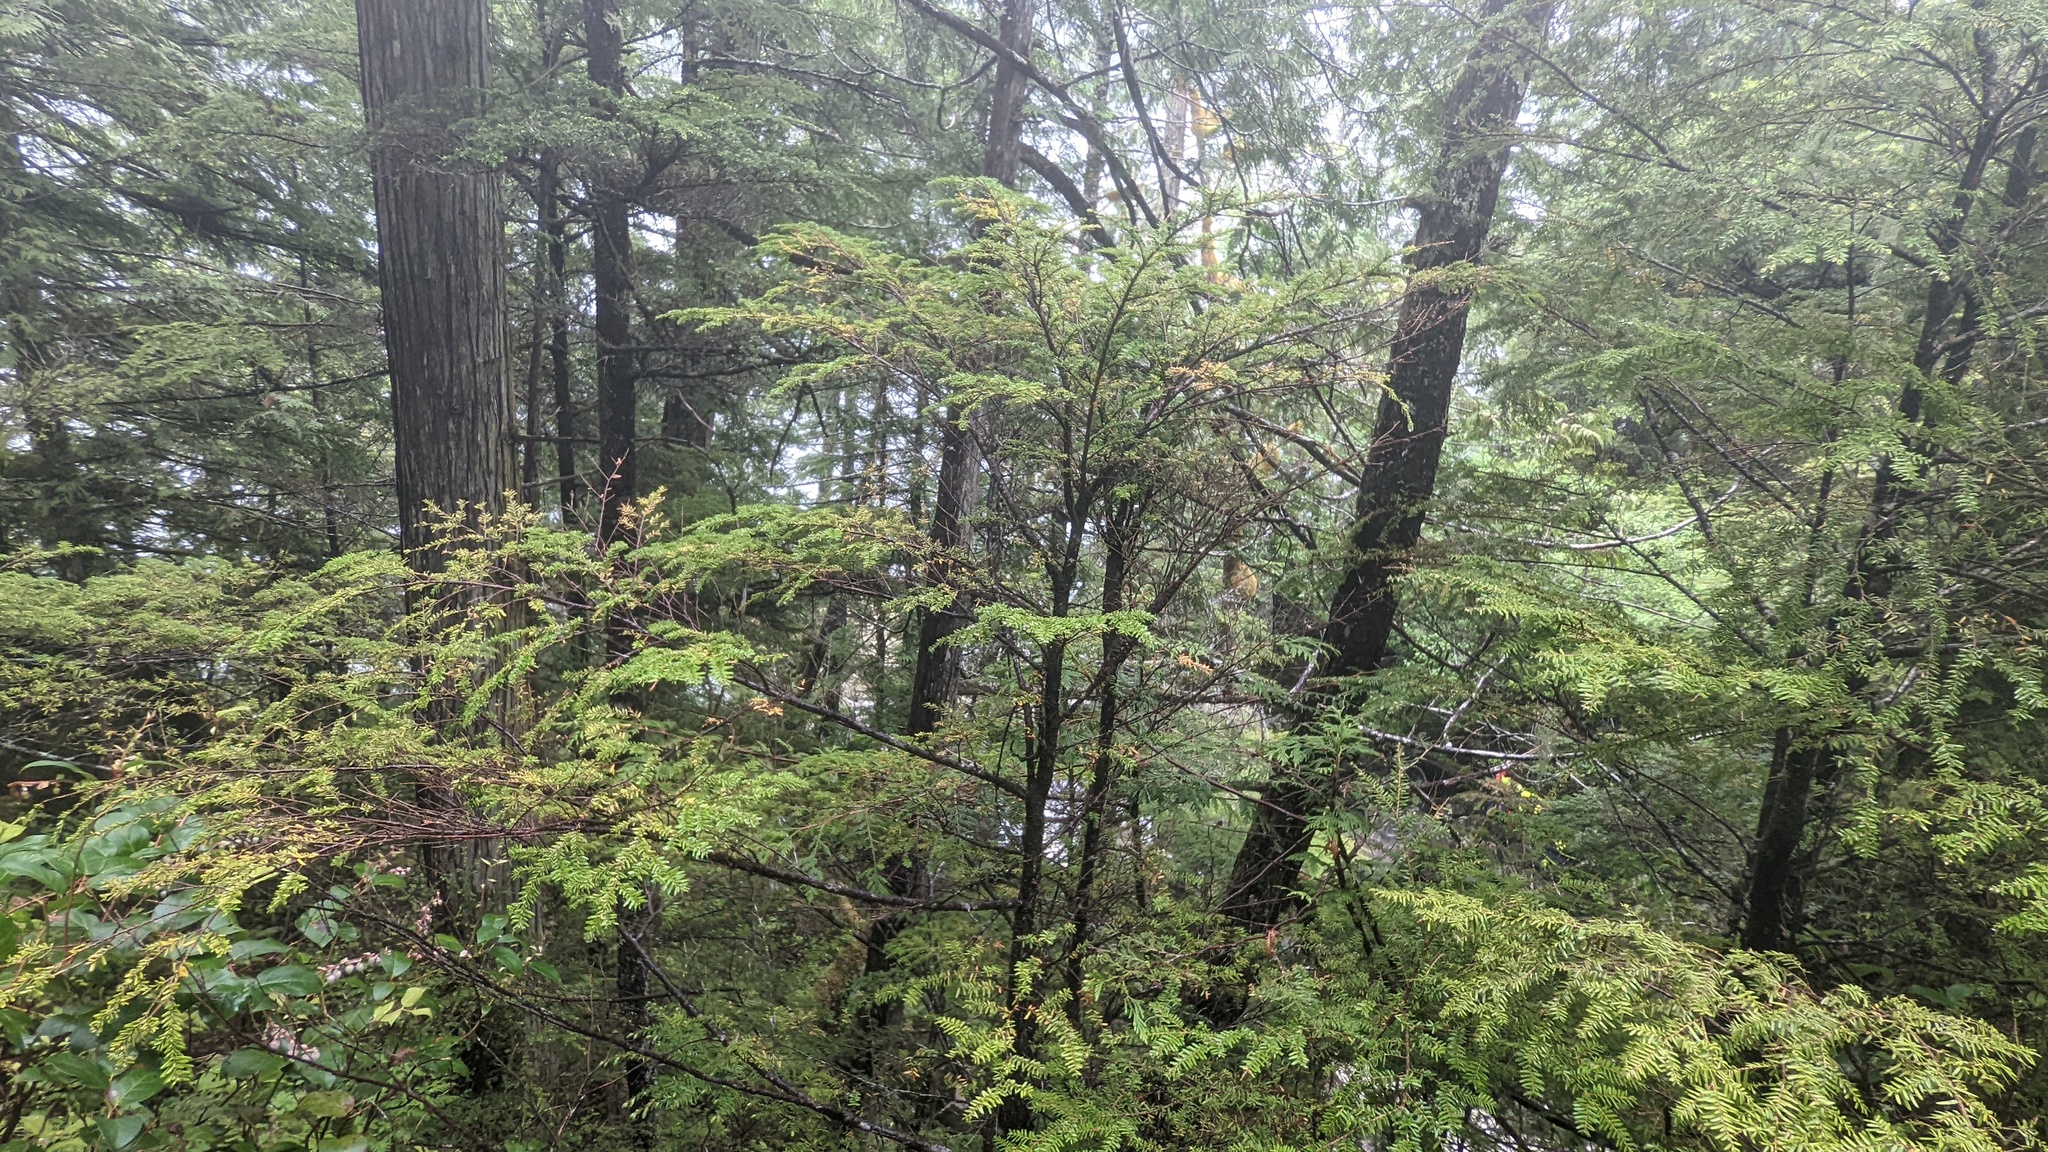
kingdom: Plantae
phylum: Tracheophyta
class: Pinopsida
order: Pinales
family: Pinaceae
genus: Tsuga
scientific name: Tsuga heterophylla
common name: Western hemlock
